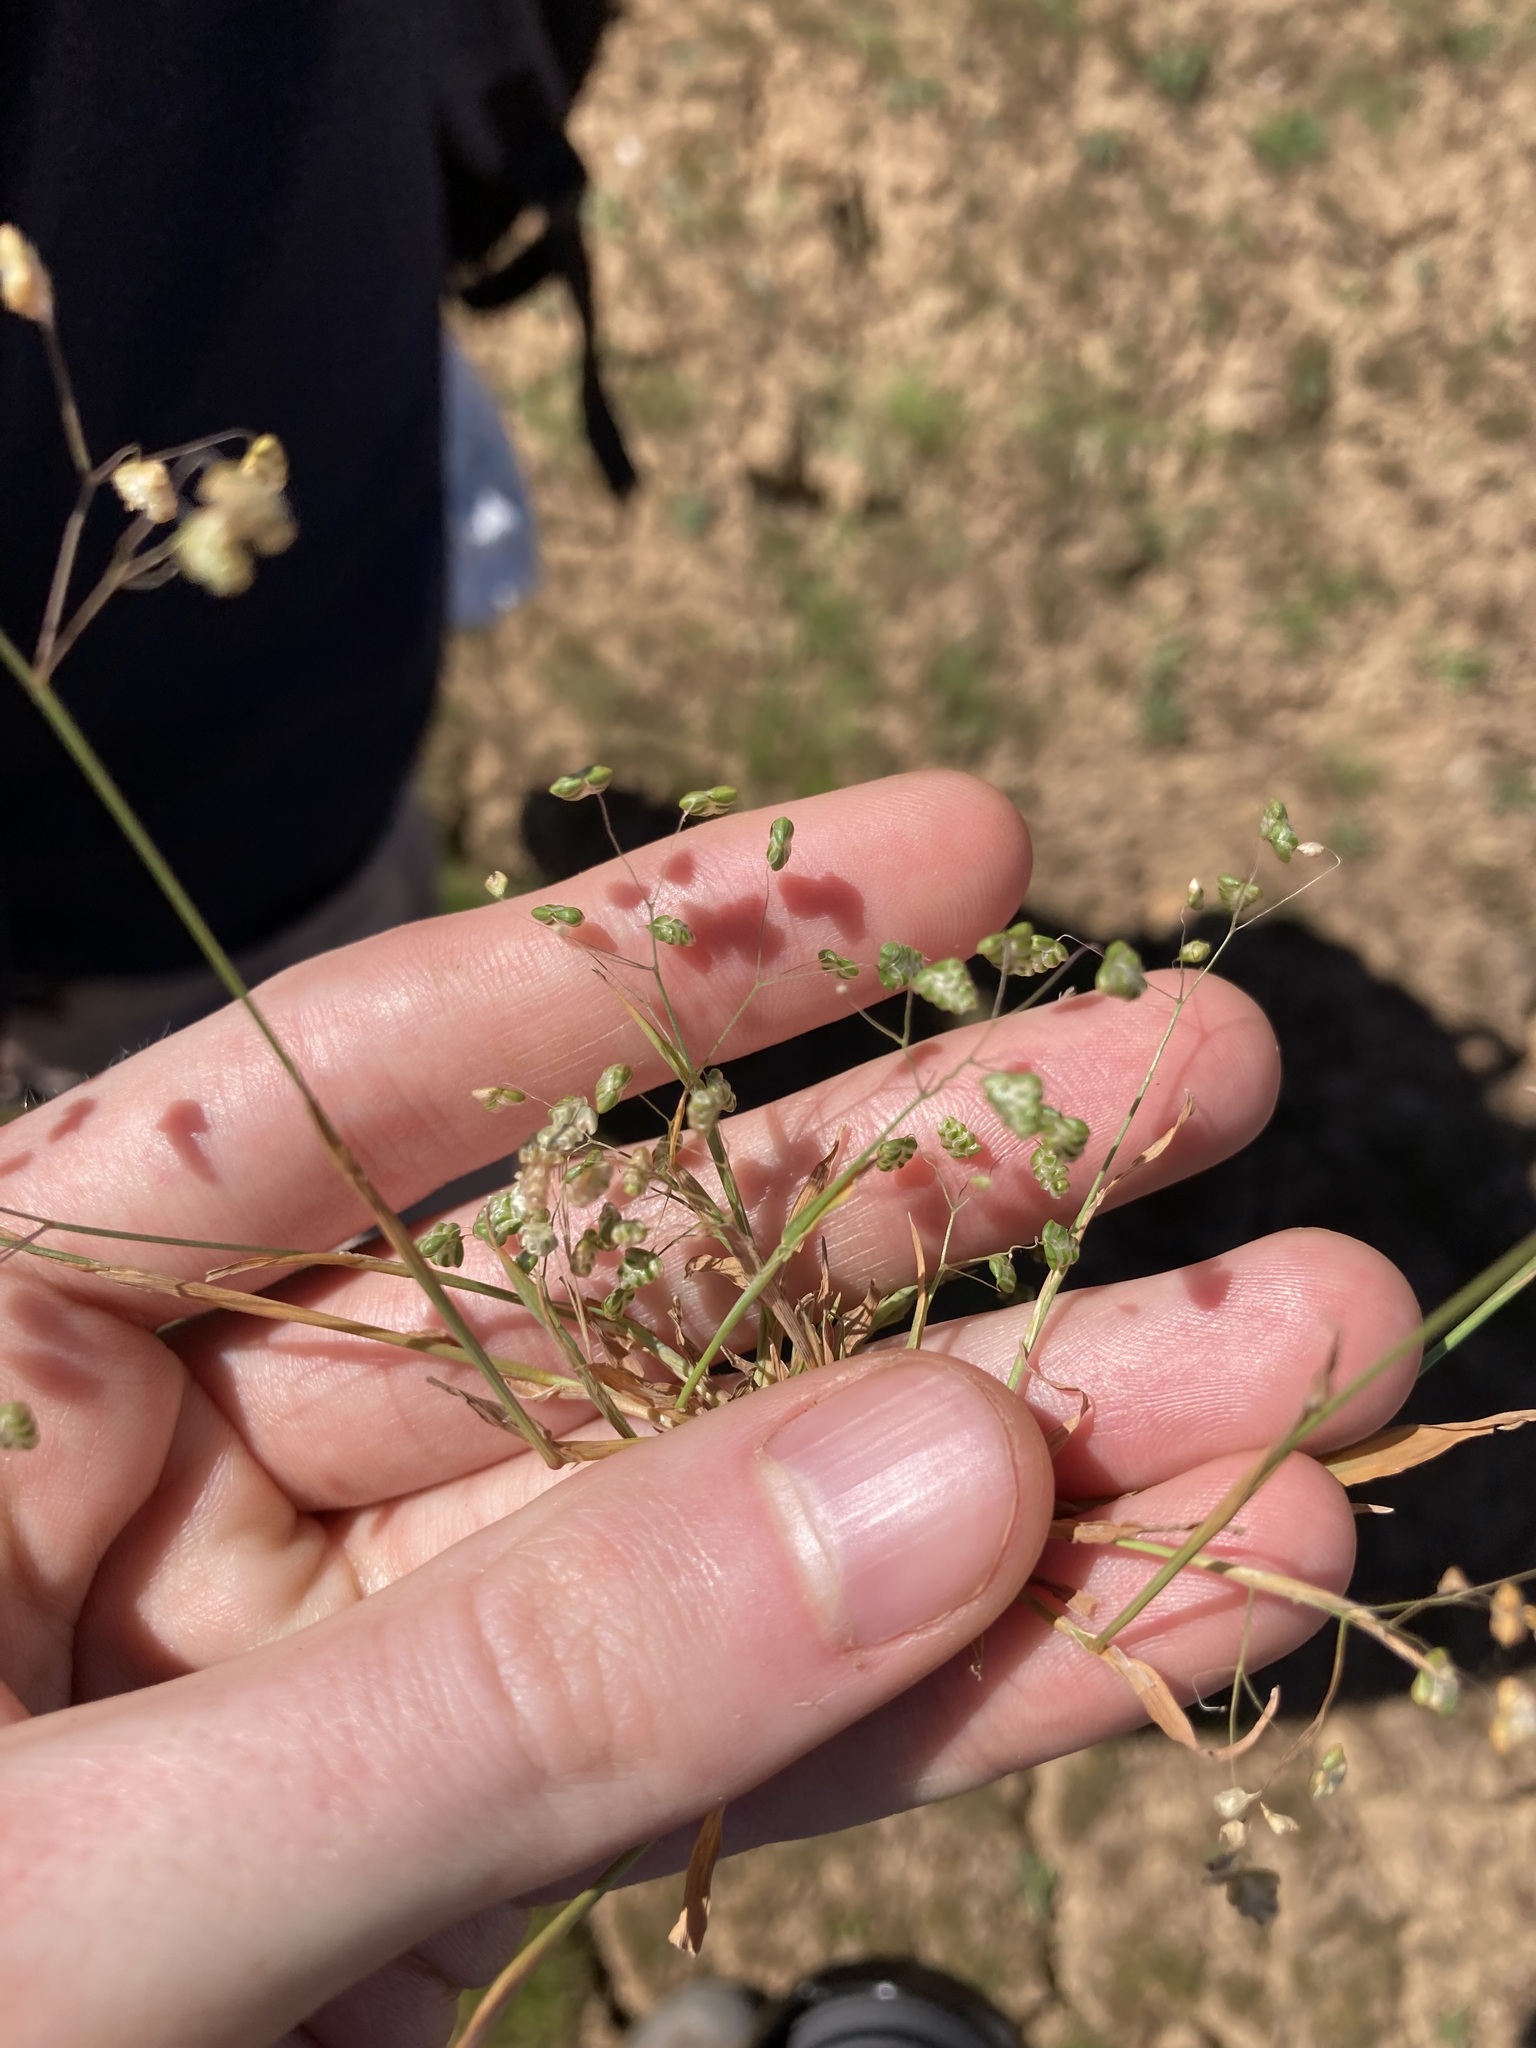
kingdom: Plantae
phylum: Tracheophyta
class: Liliopsida
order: Poales
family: Poaceae
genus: Briza
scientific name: Briza minor
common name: Lesser quaking-grass
